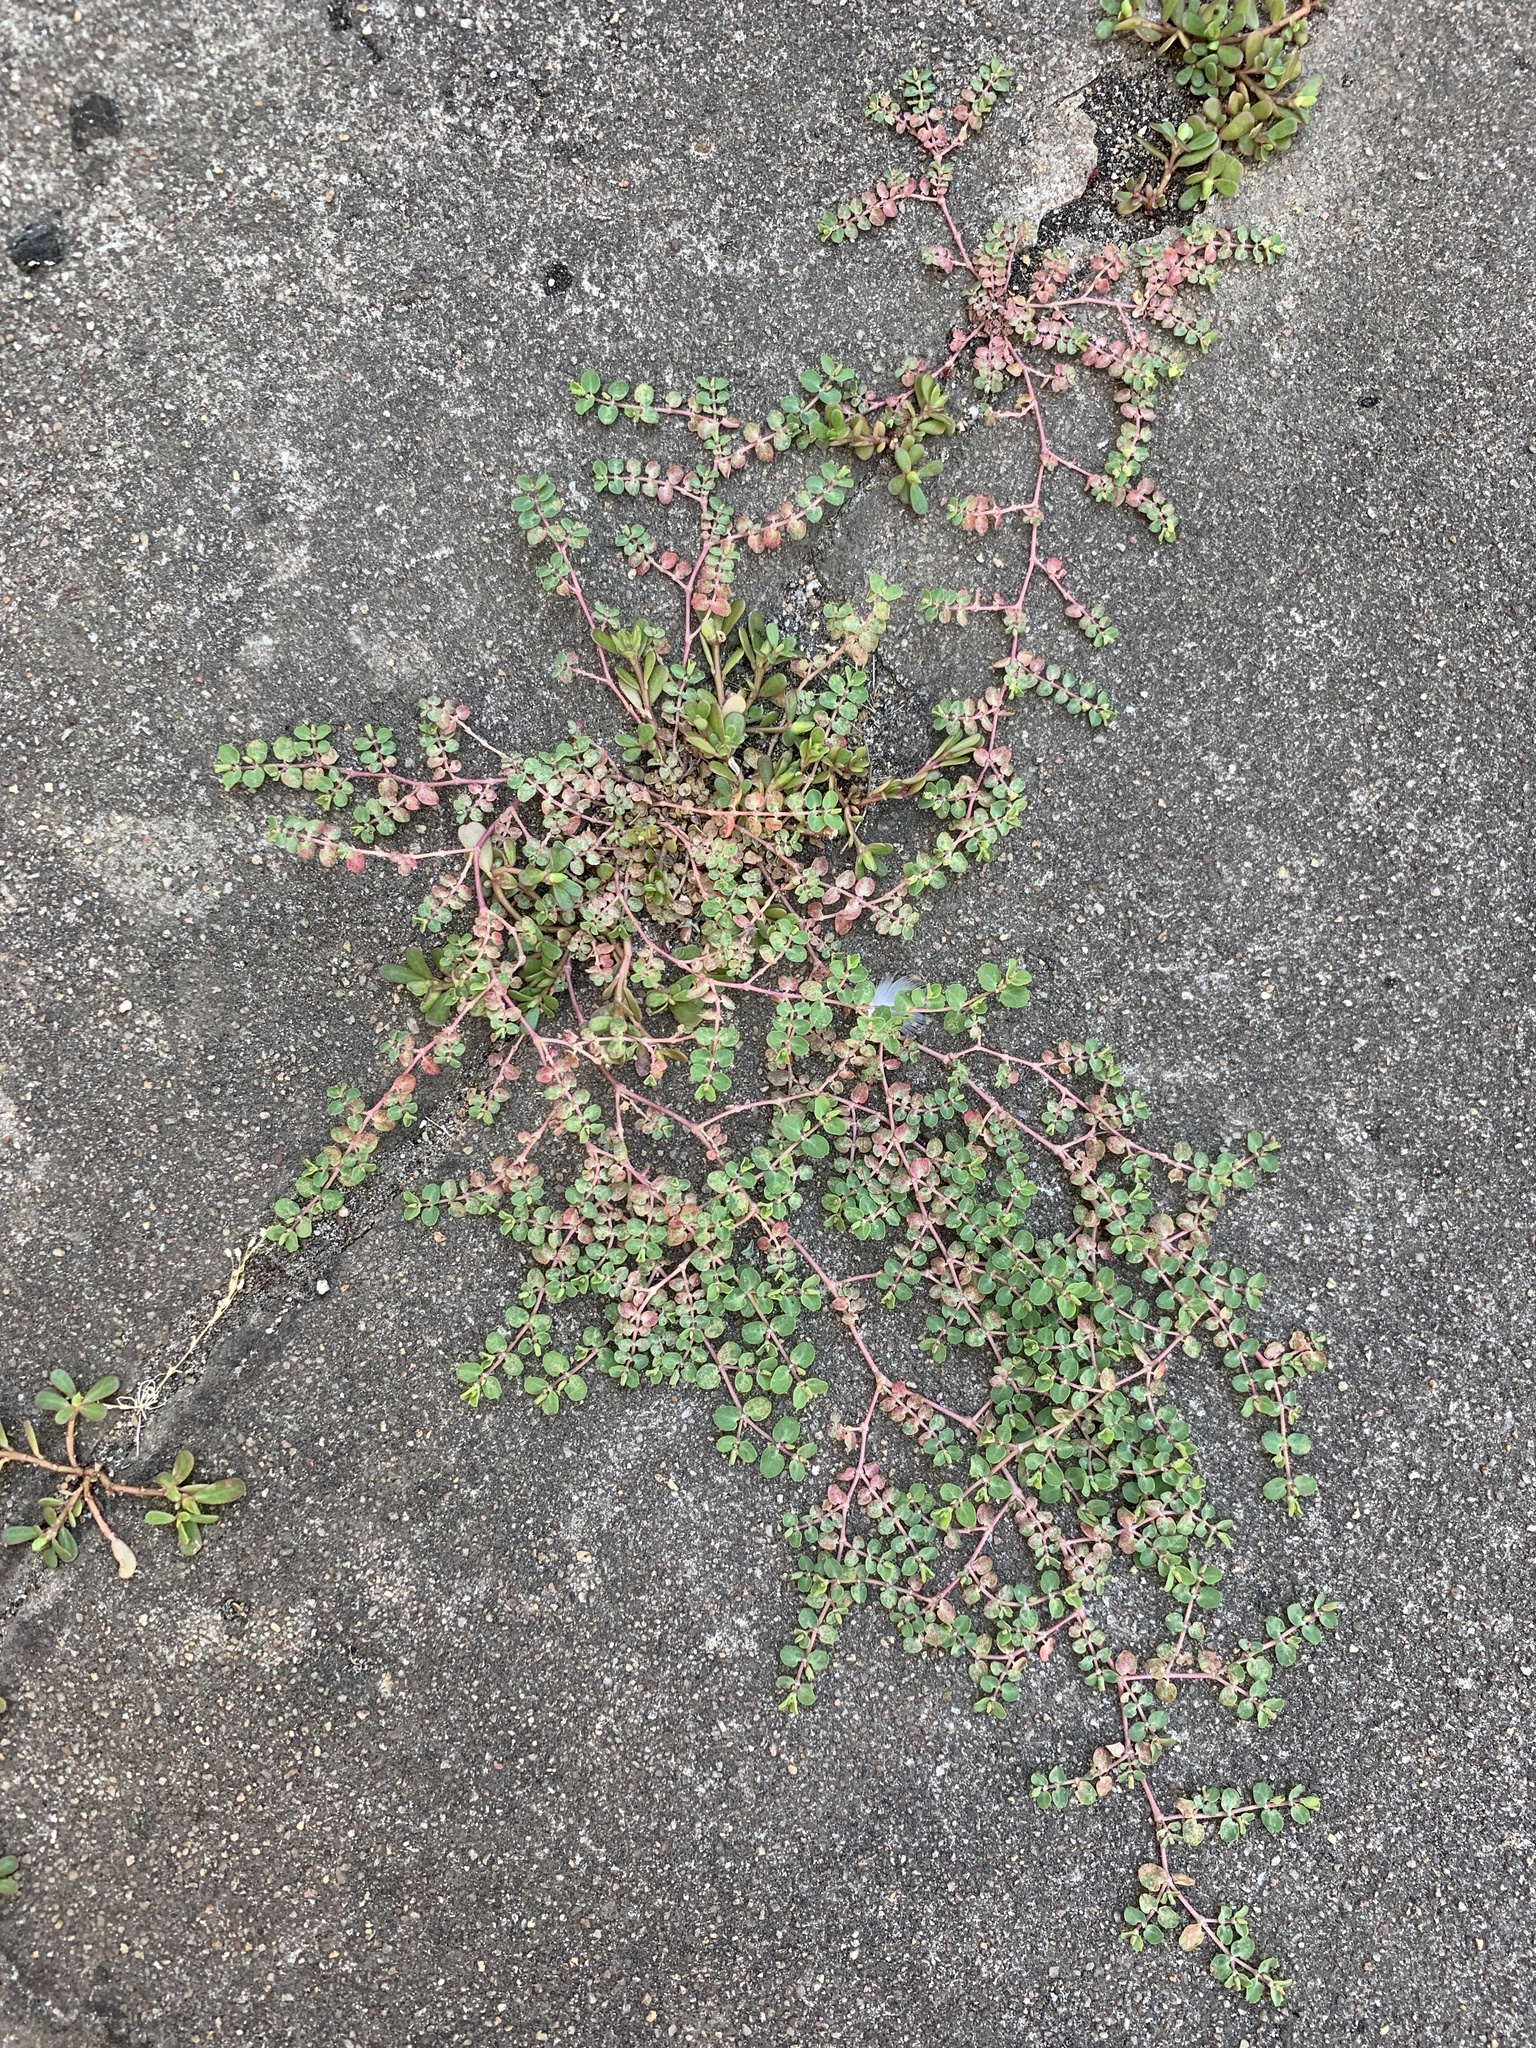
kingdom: Plantae
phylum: Tracheophyta
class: Magnoliopsida
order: Malpighiales
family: Euphorbiaceae
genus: Euphorbia
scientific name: Euphorbia serpens
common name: Matted sandmat
